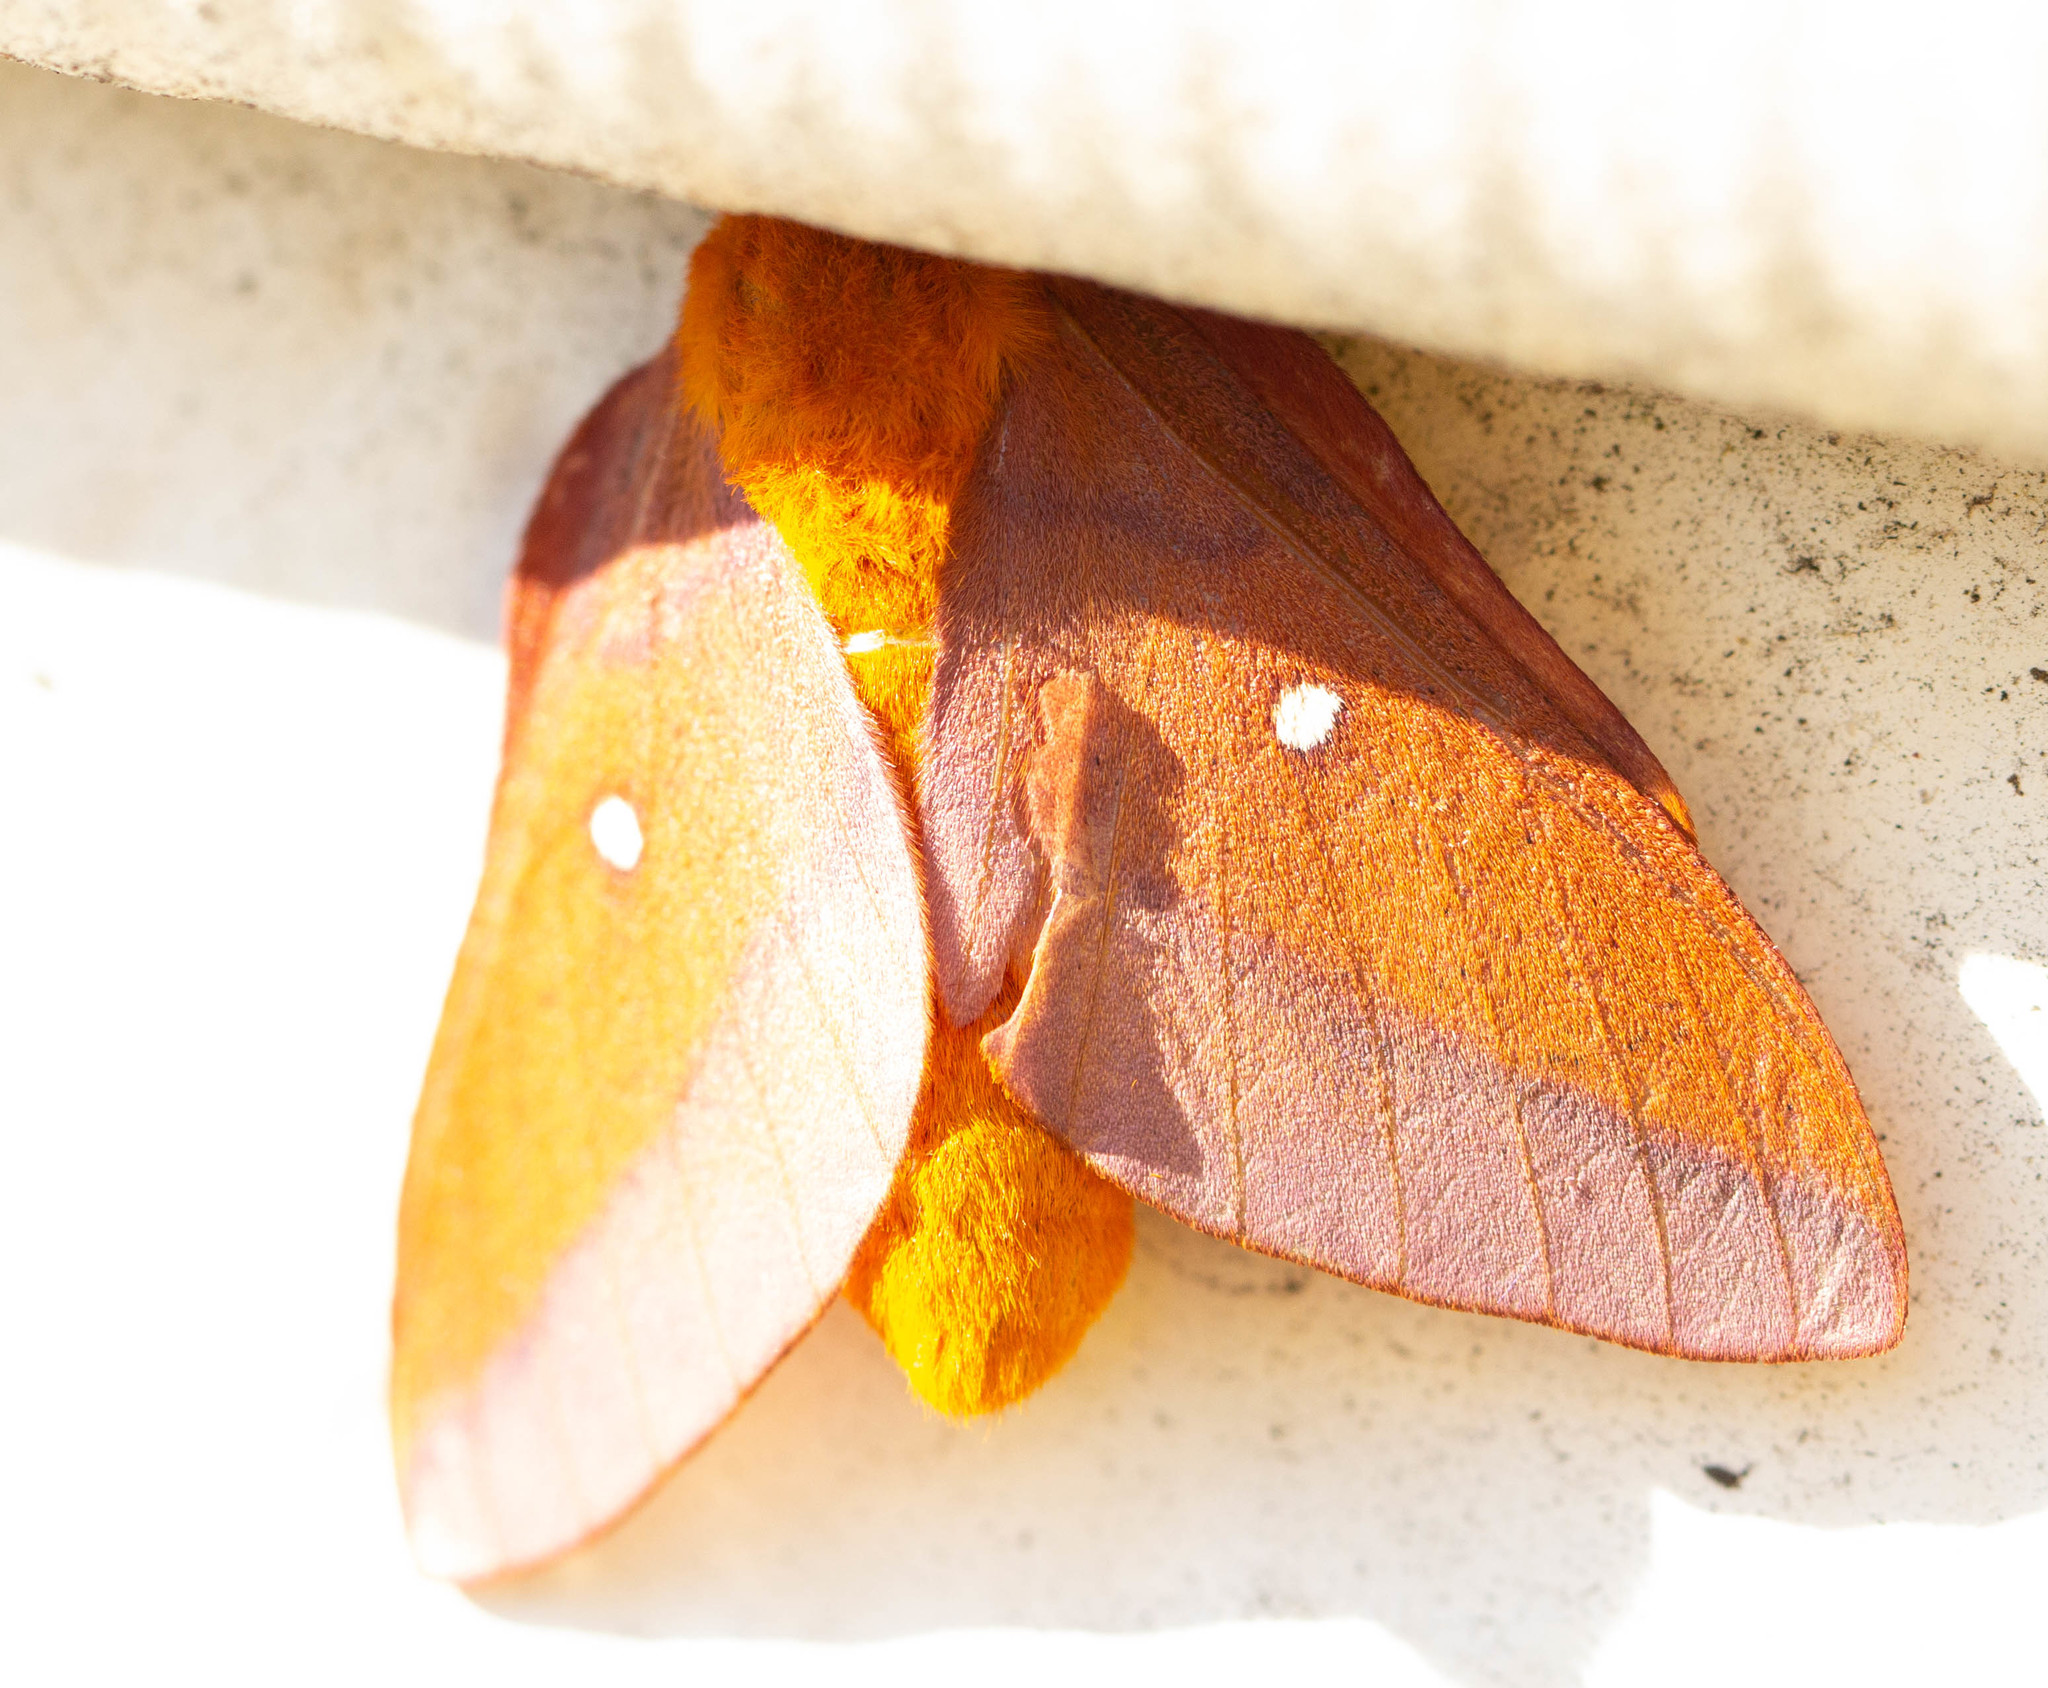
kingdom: Animalia
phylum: Arthropoda
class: Insecta
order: Lepidoptera
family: Saturniidae
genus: Anisota
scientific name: Anisota virginiensis
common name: Pink striped oakworm moth
